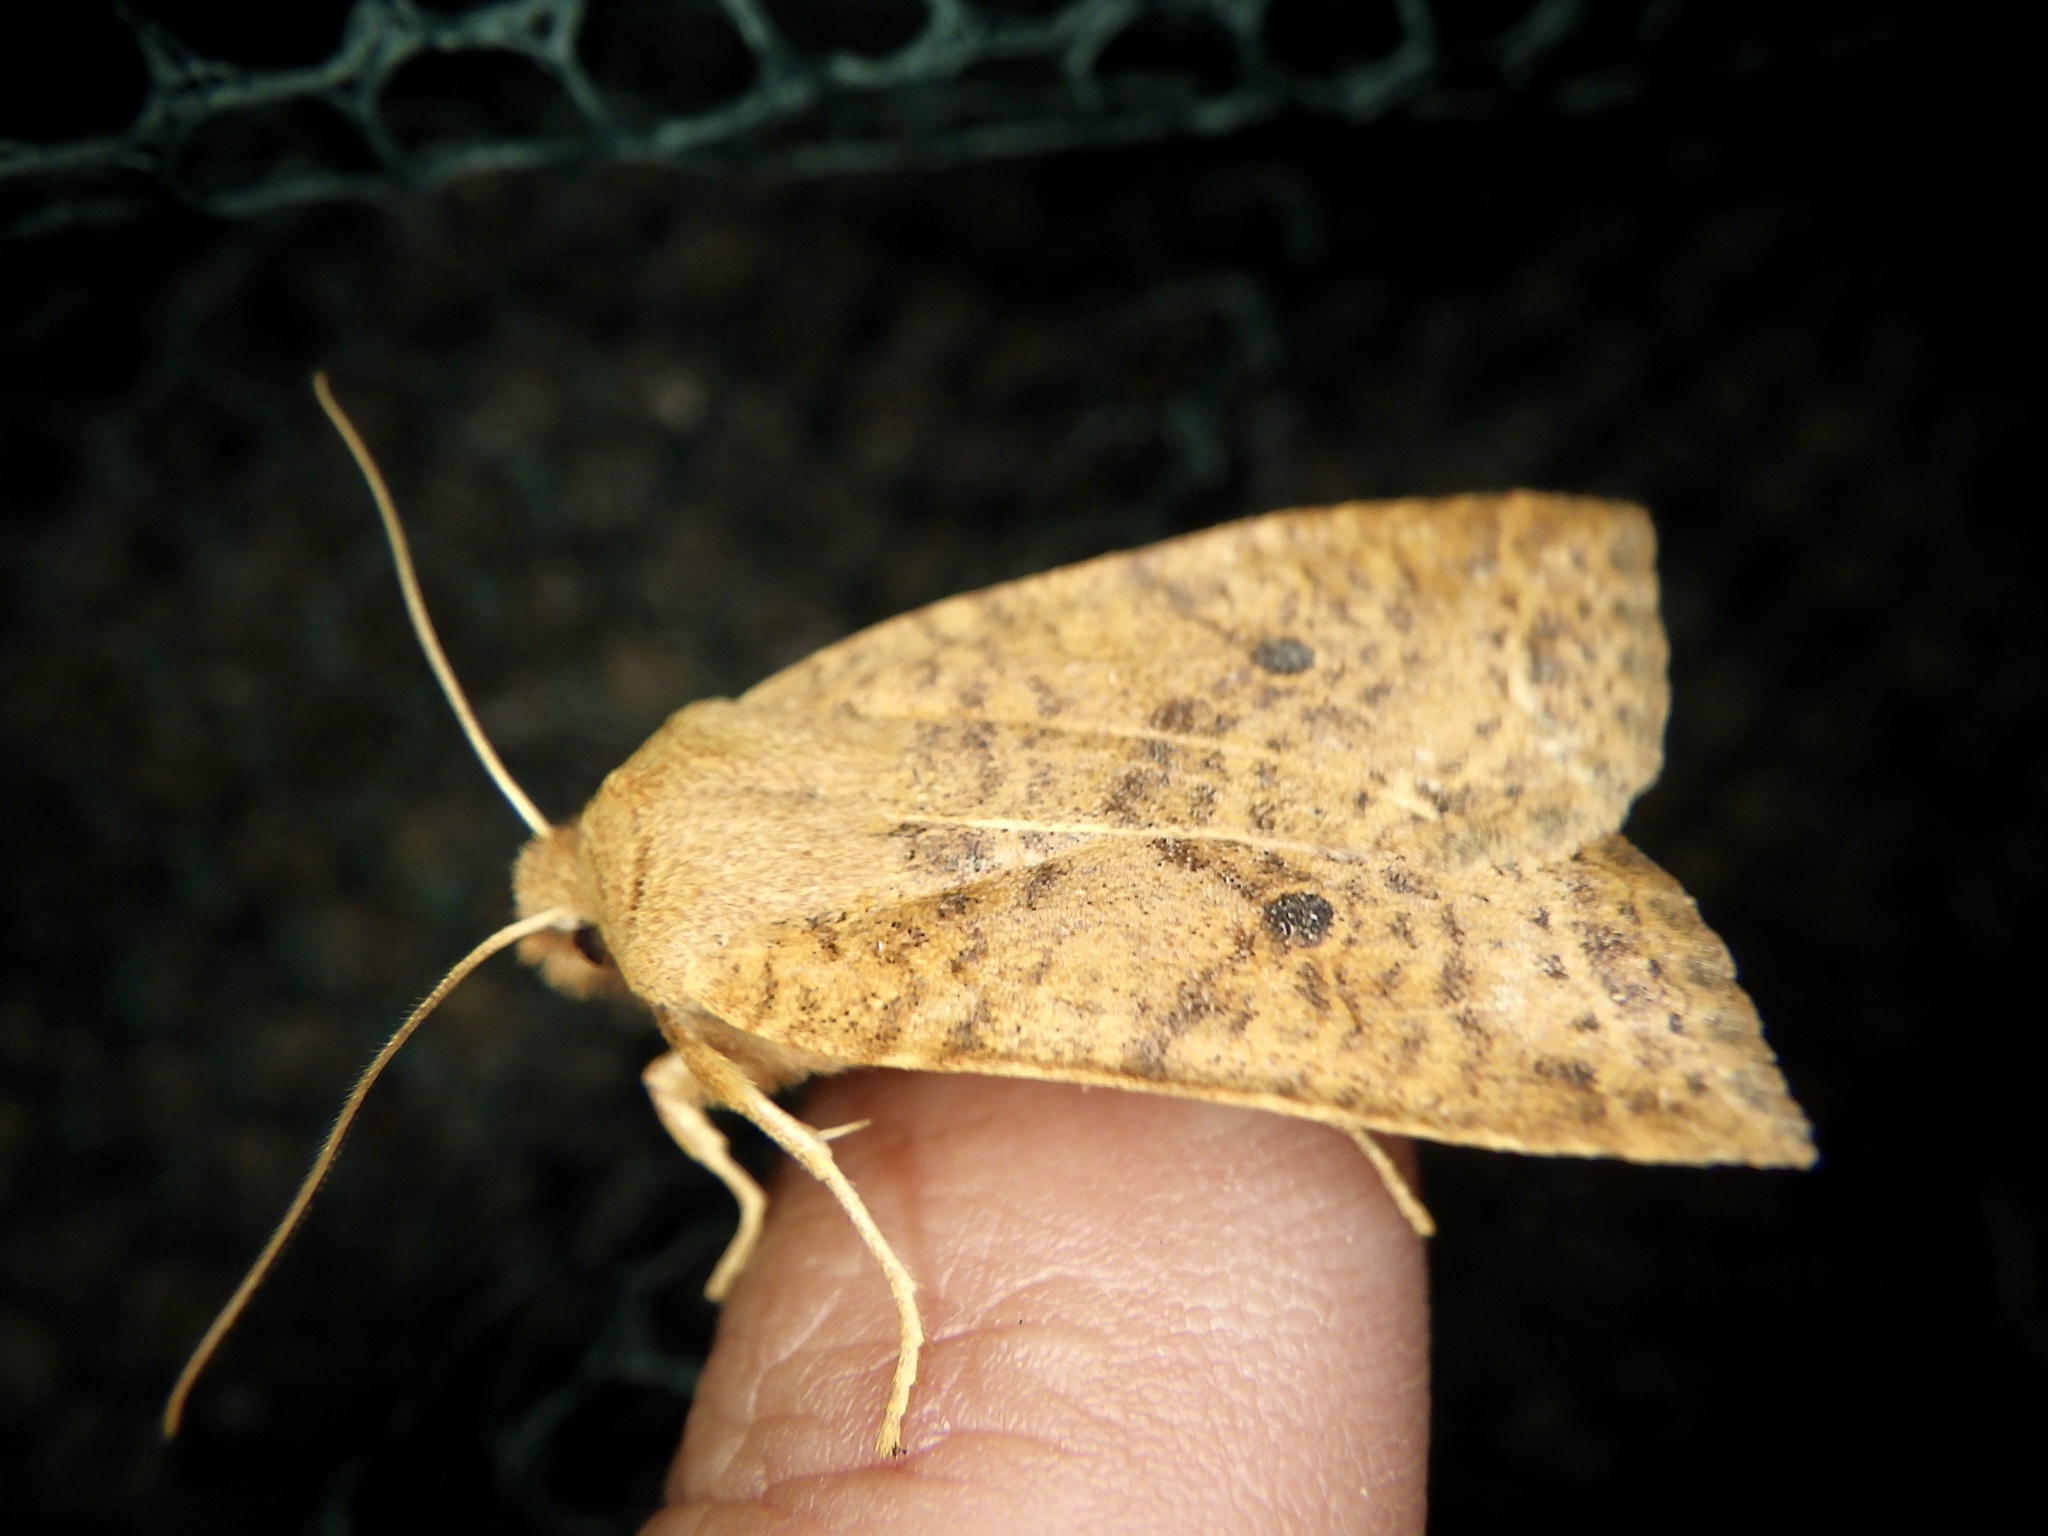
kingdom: Animalia
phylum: Arthropoda
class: Insecta
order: Lepidoptera
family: Noctuidae
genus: Conistra
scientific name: Conistra albipuncta
